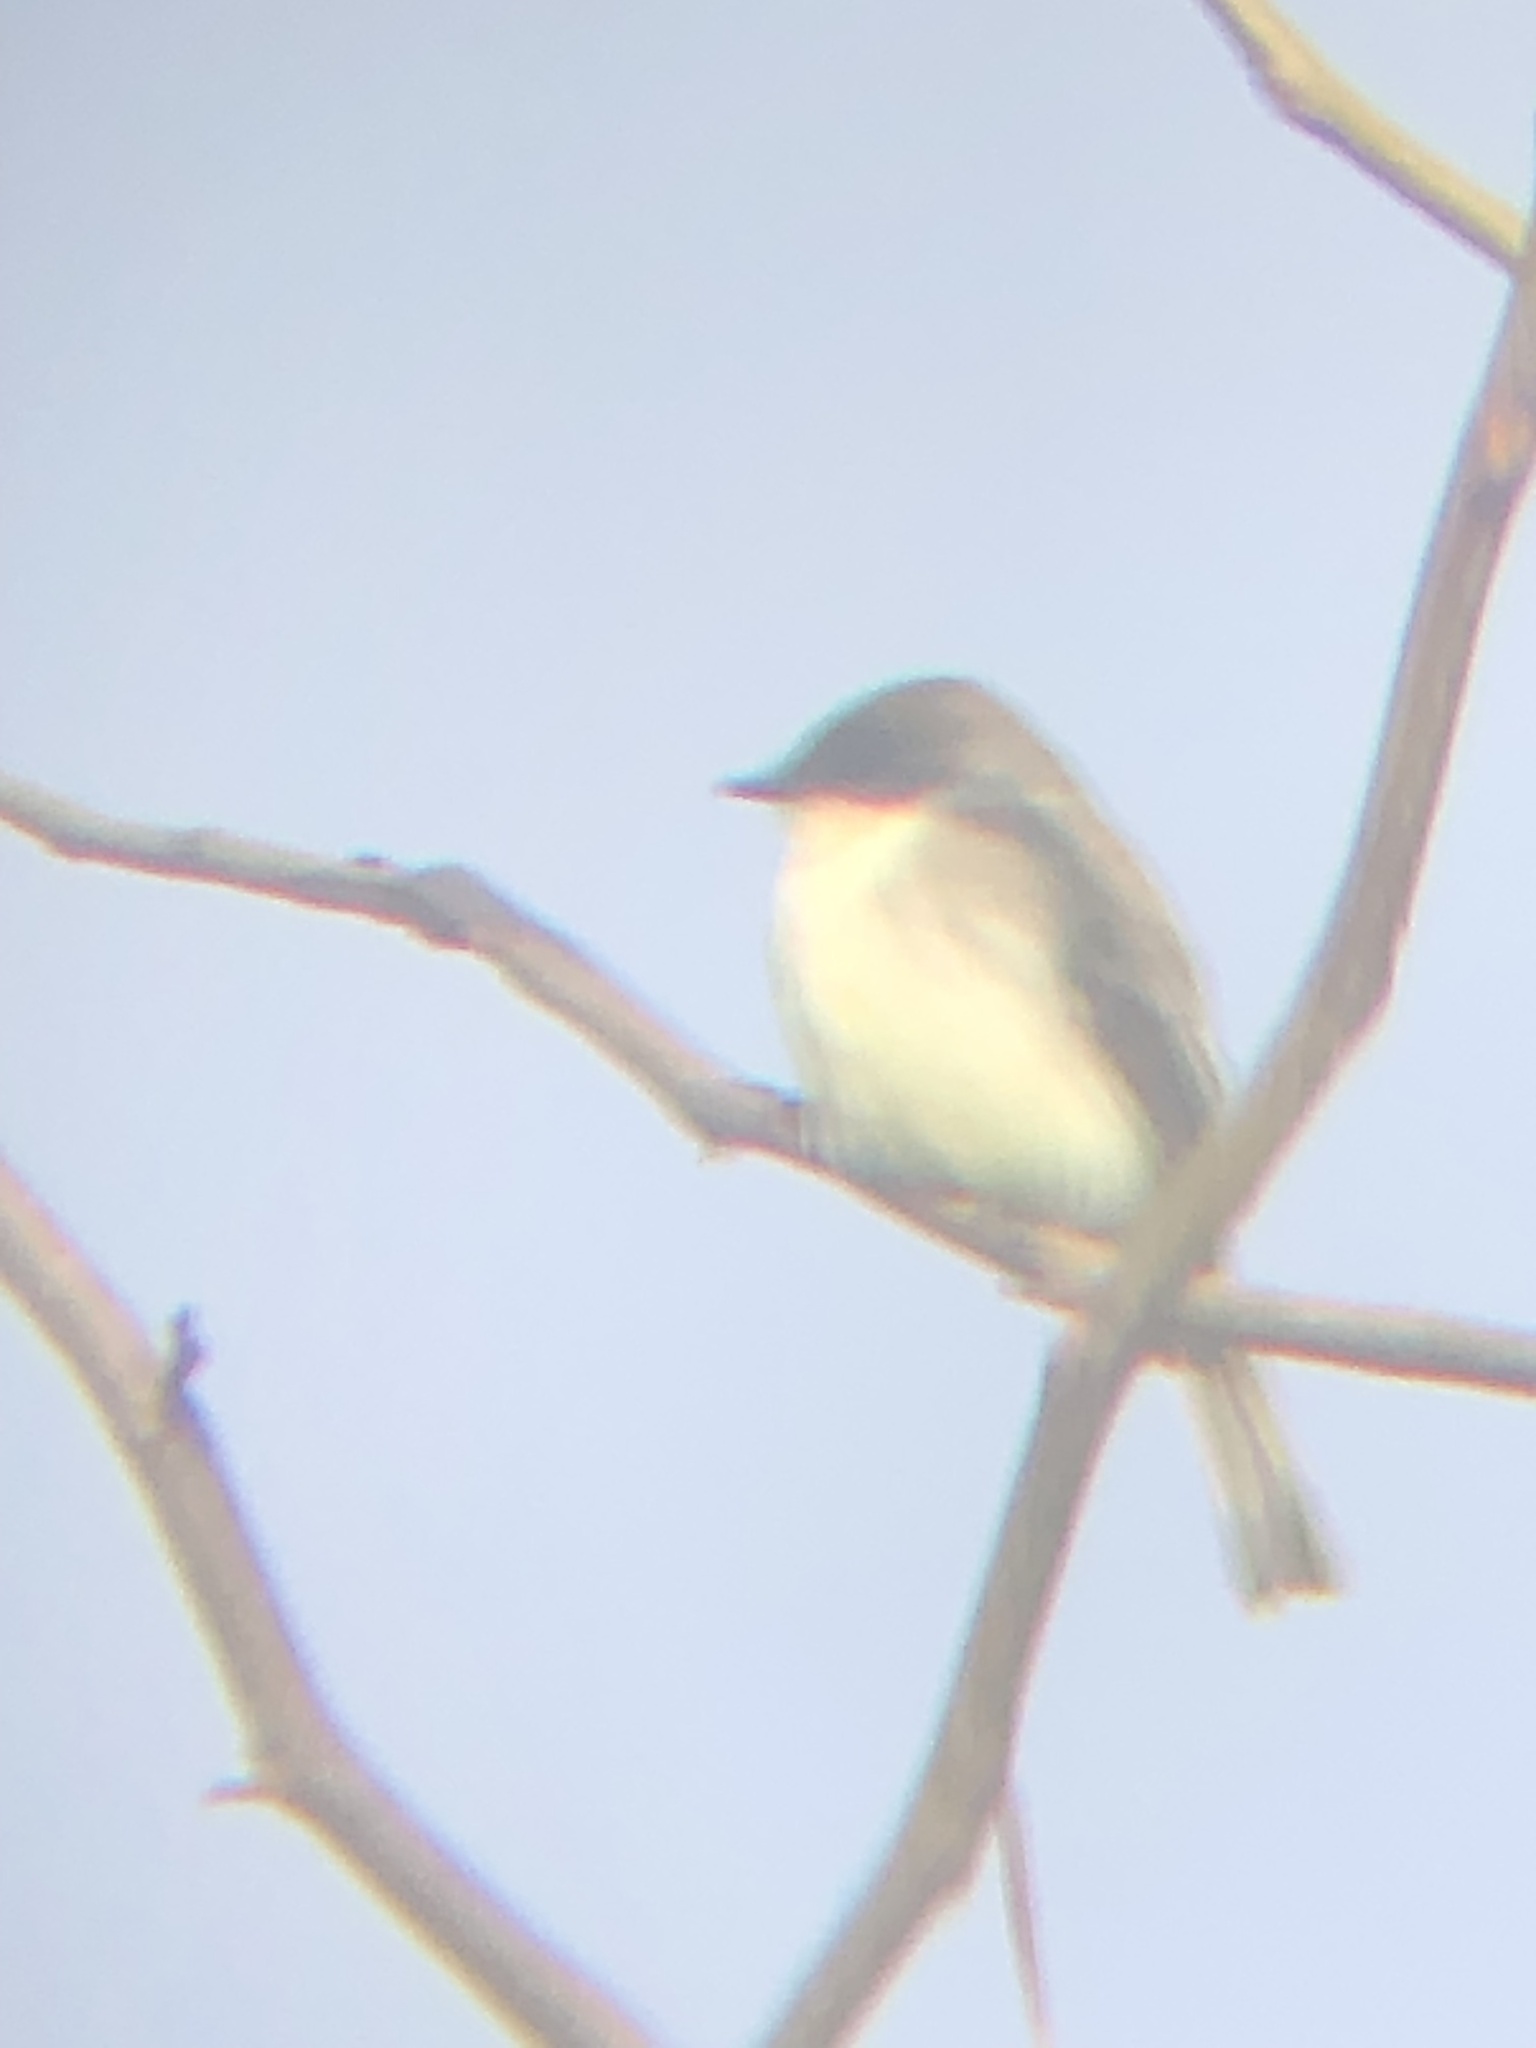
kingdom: Animalia
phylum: Chordata
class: Aves
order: Passeriformes
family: Tyrannidae
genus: Sayornis
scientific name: Sayornis phoebe
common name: Eastern phoebe
